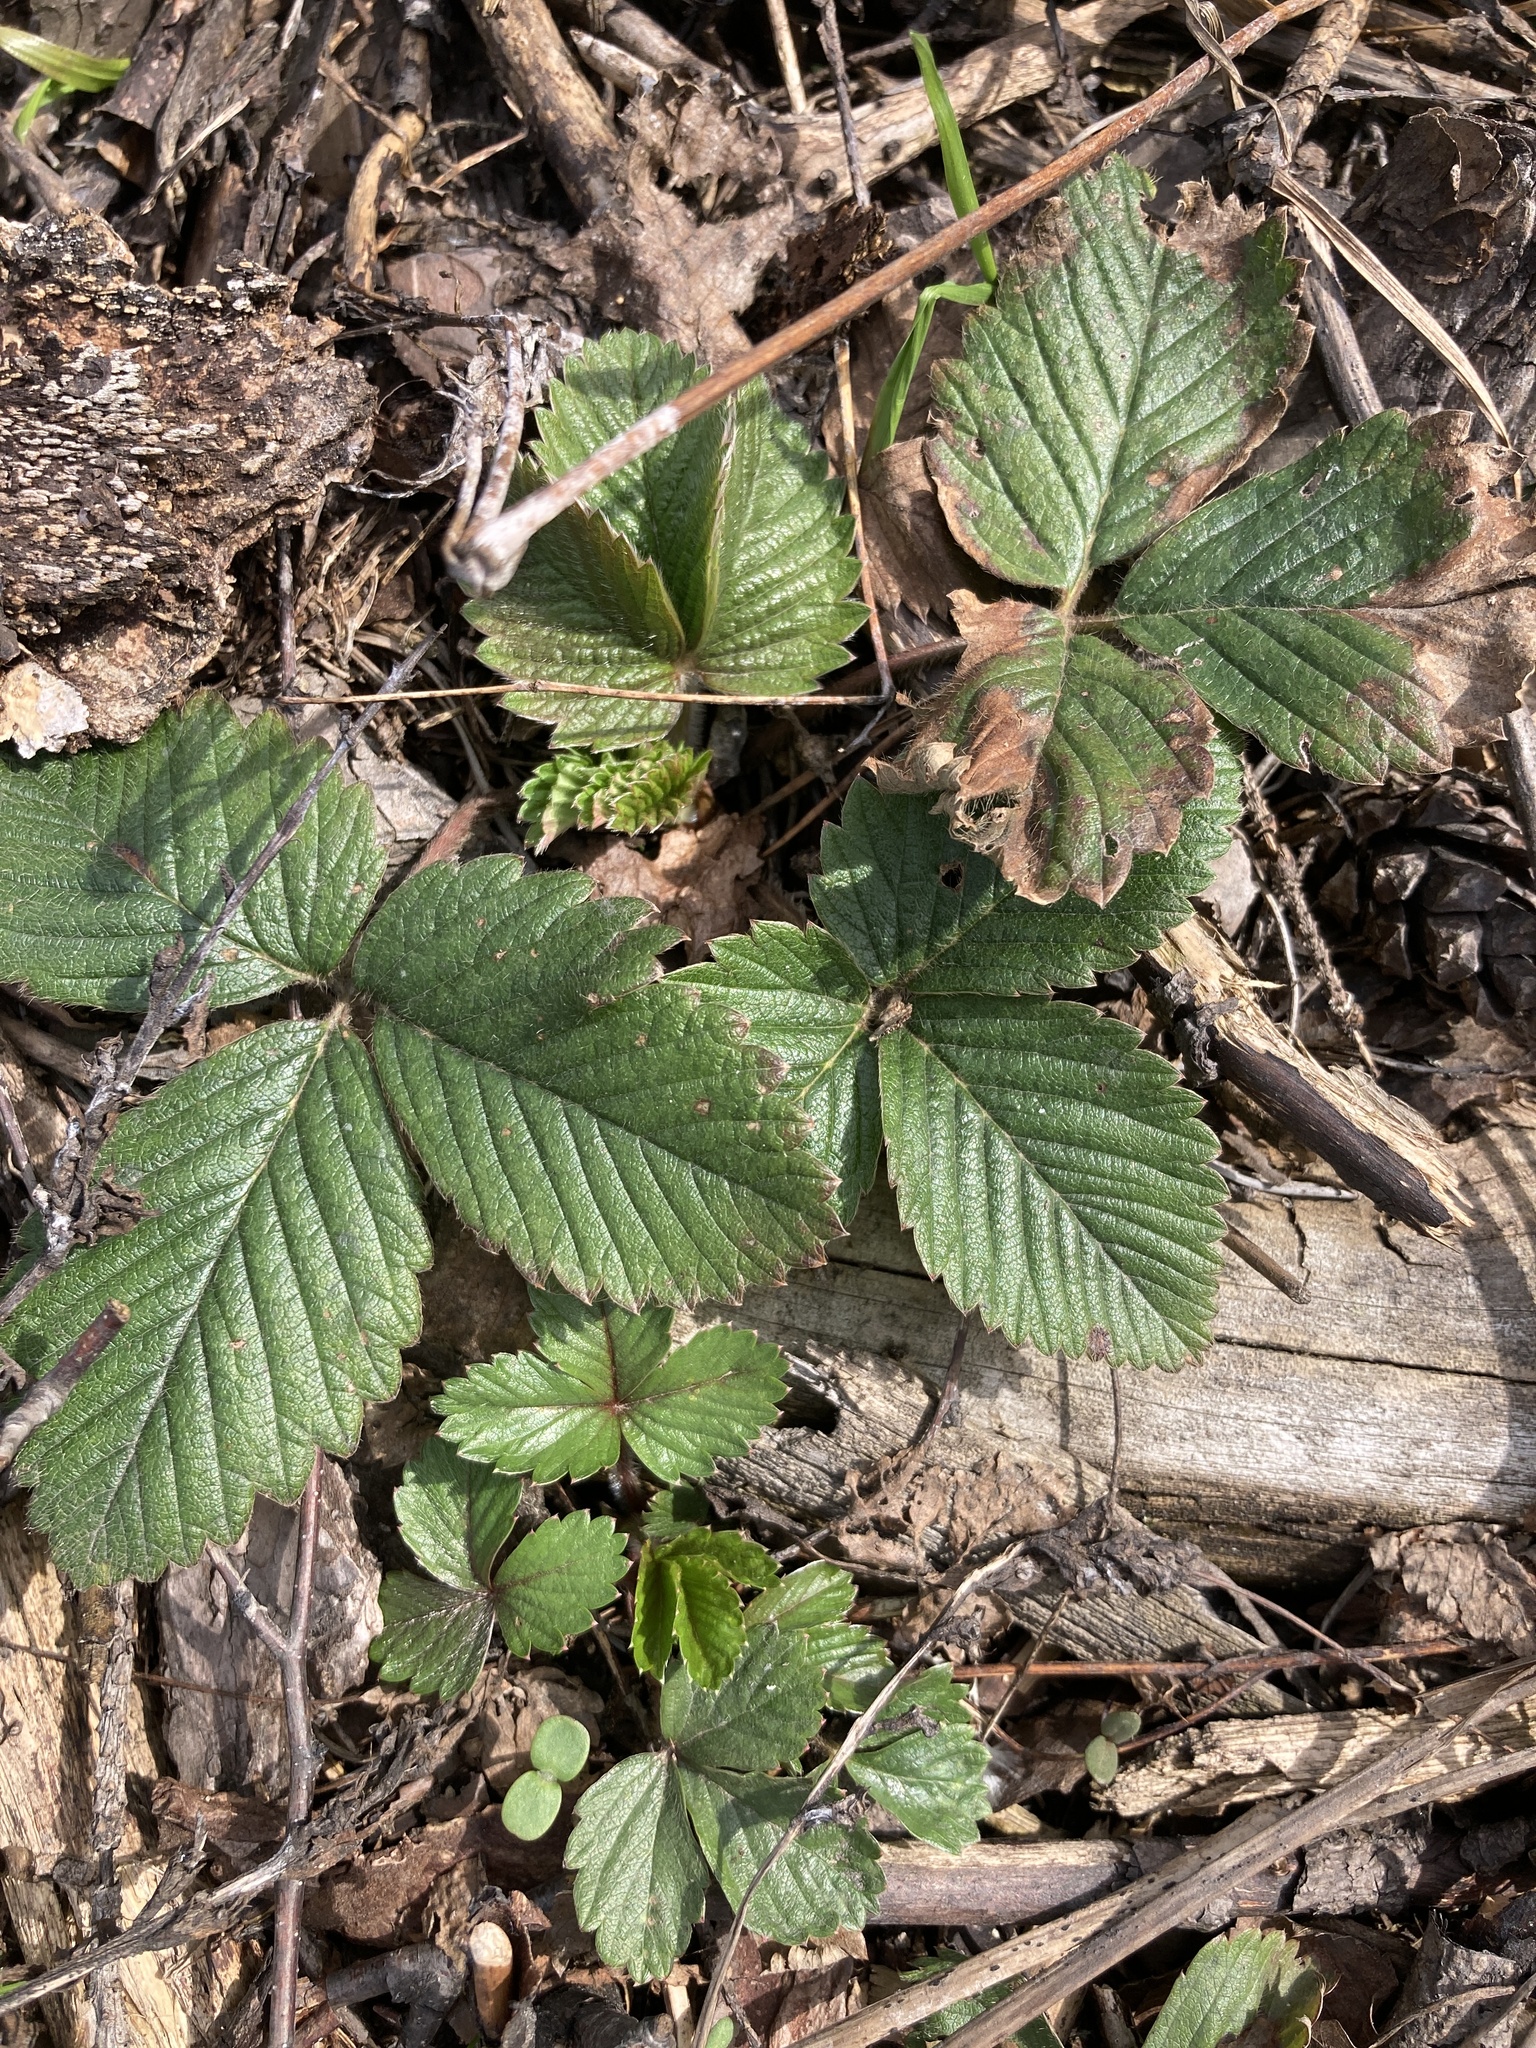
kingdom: Plantae
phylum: Tracheophyta
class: Magnoliopsida
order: Rosales
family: Rosaceae
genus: Fragaria
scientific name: Fragaria vesca
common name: Wild strawberry
